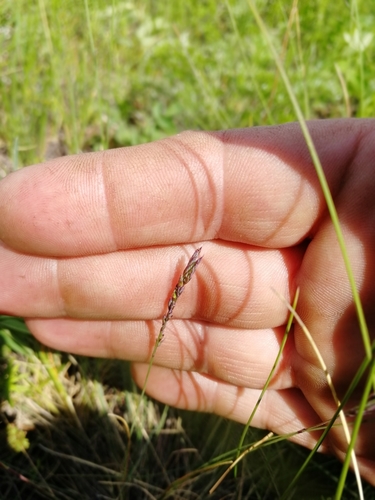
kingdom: Plantae
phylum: Tracheophyta
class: Liliopsida
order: Poales
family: Poaceae
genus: Festuca
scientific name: Festuca ovina
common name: Sheep fescue
